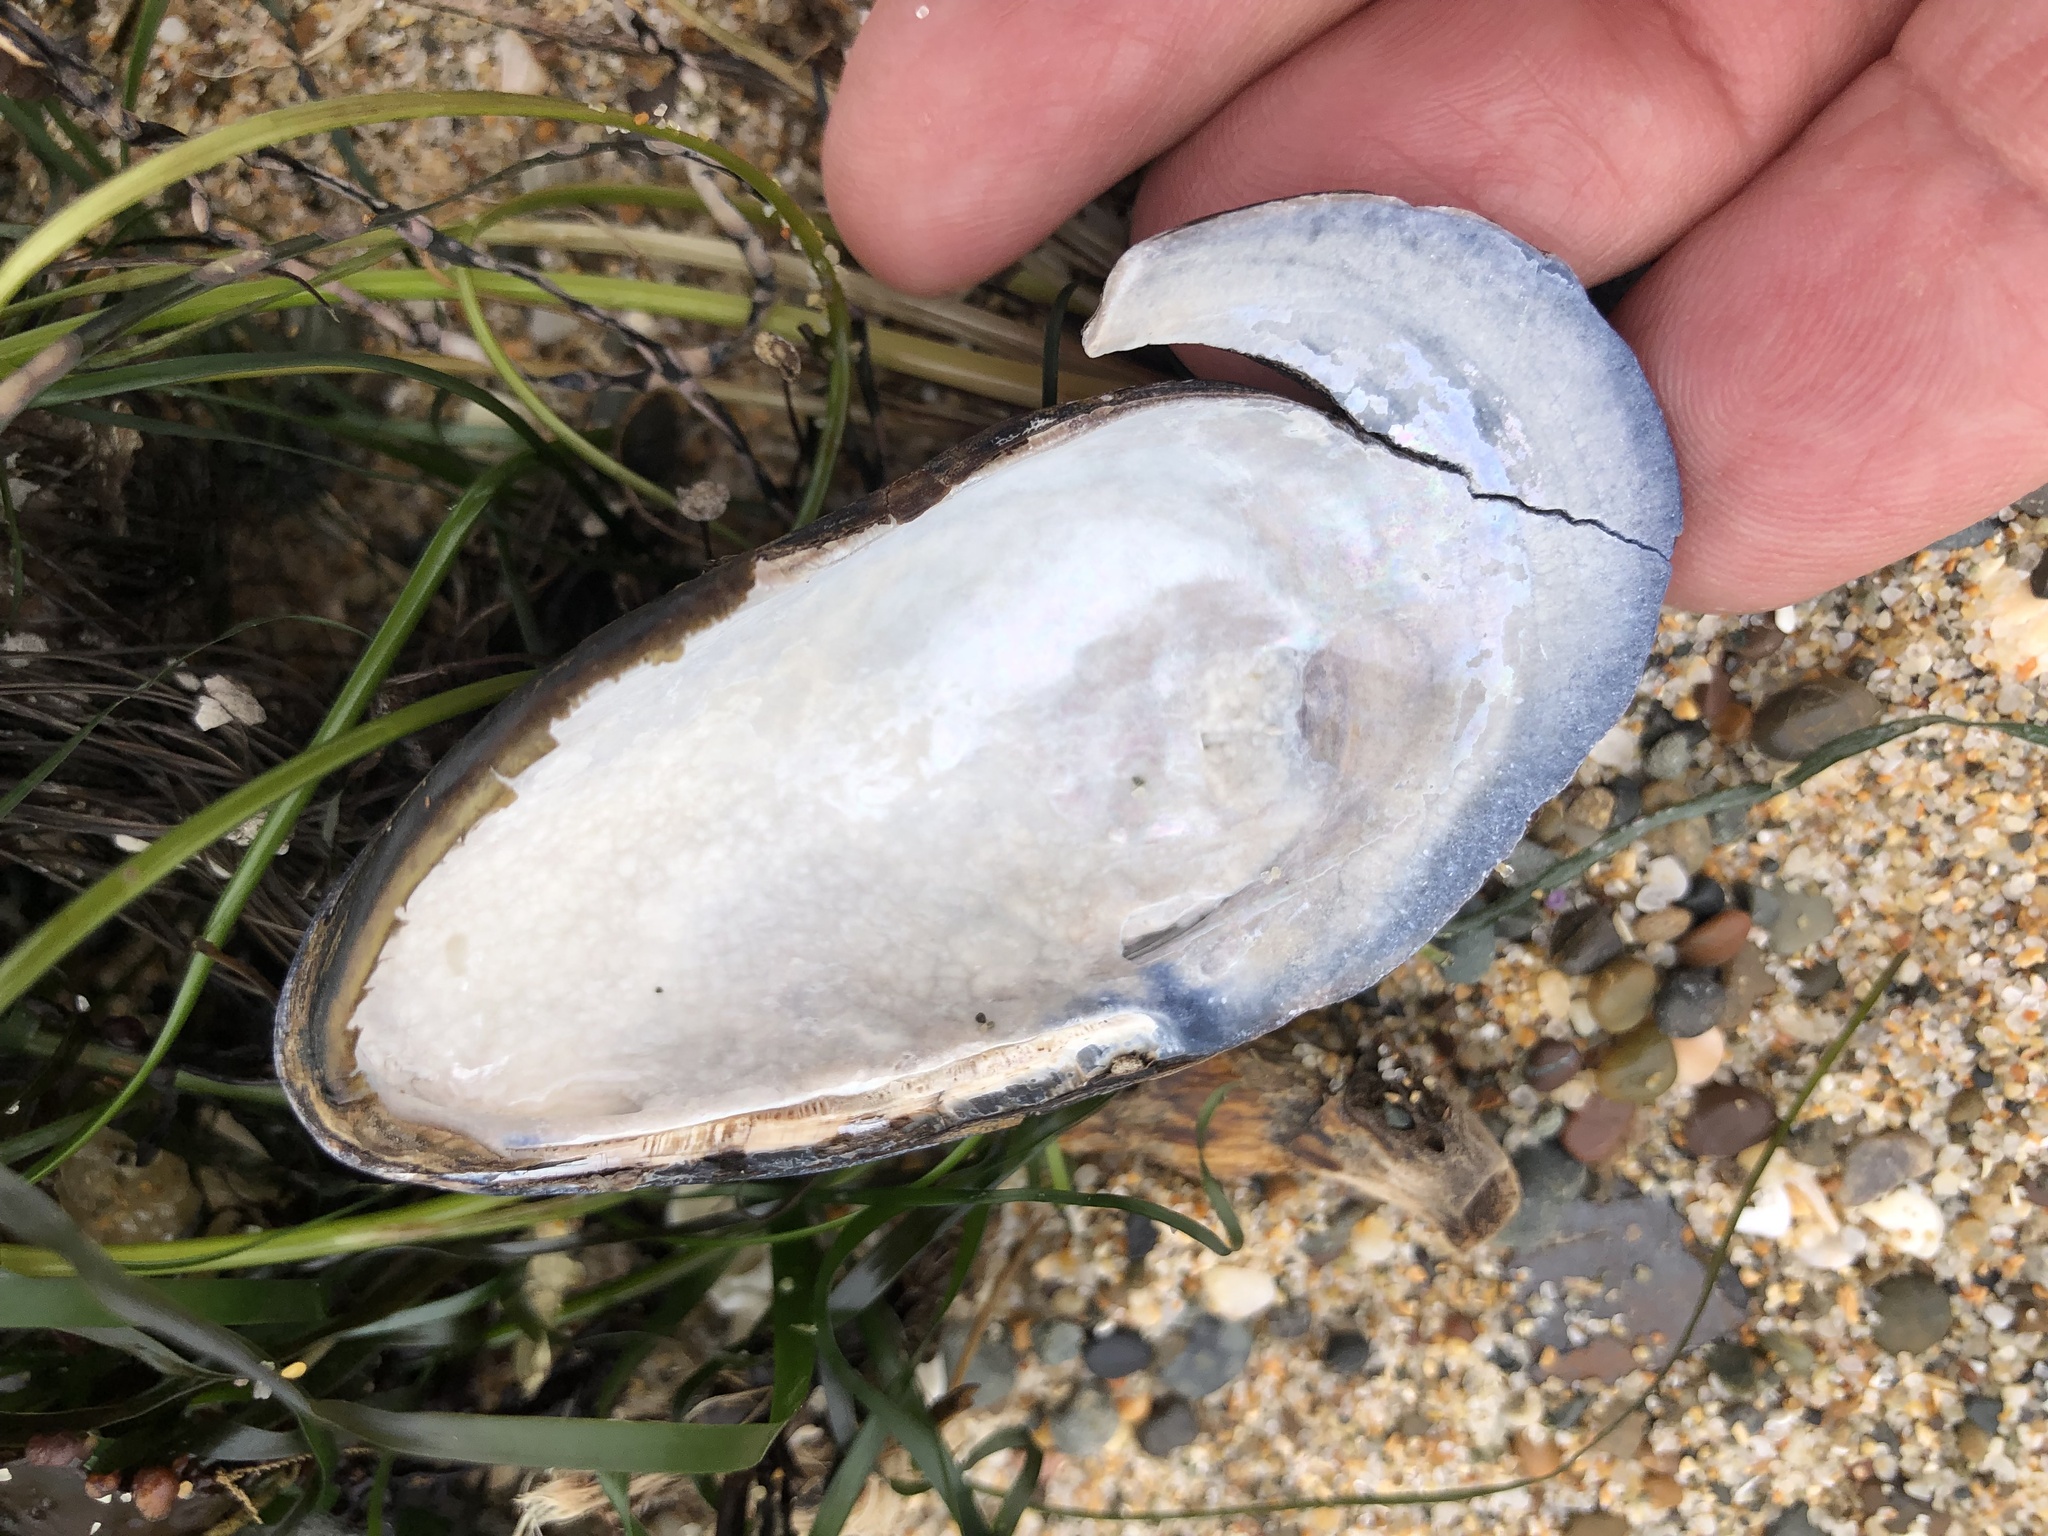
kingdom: Animalia
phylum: Mollusca
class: Bivalvia
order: Mytilida
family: Mytilidae
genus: Mytilus
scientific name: Mytilus californianus
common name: California mussel
